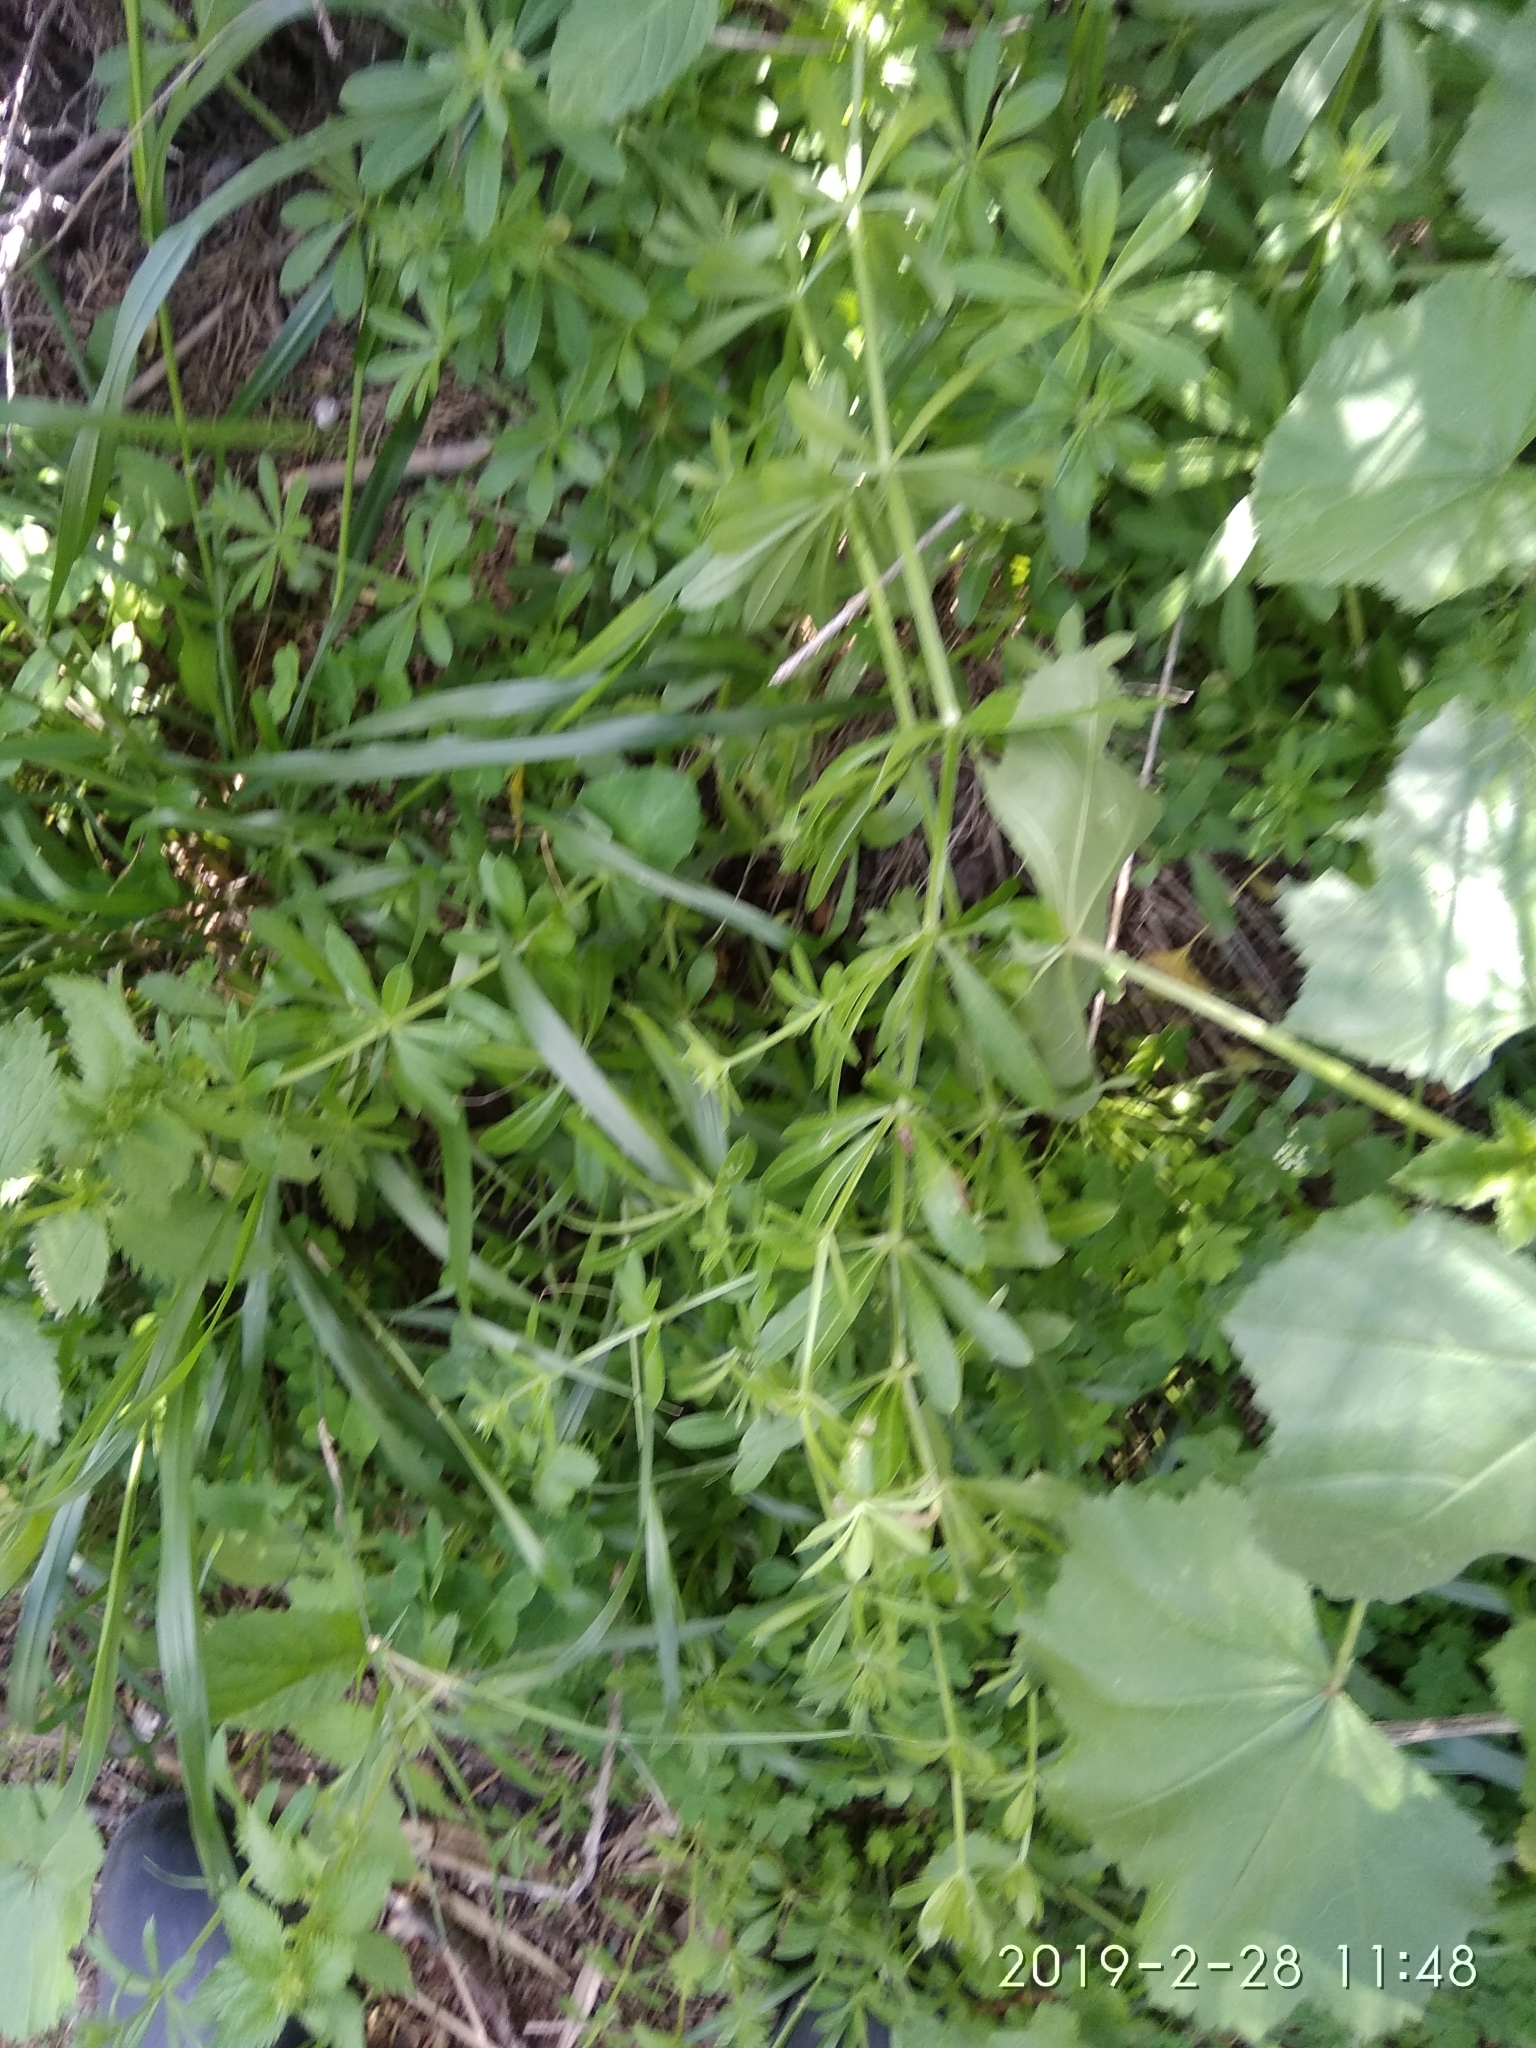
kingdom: Plantae
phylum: Tracheophyta
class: Magnoliopsida
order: Gentianales
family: Rubiaceae
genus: Galium
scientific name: Galium aparine
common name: Cleavers
